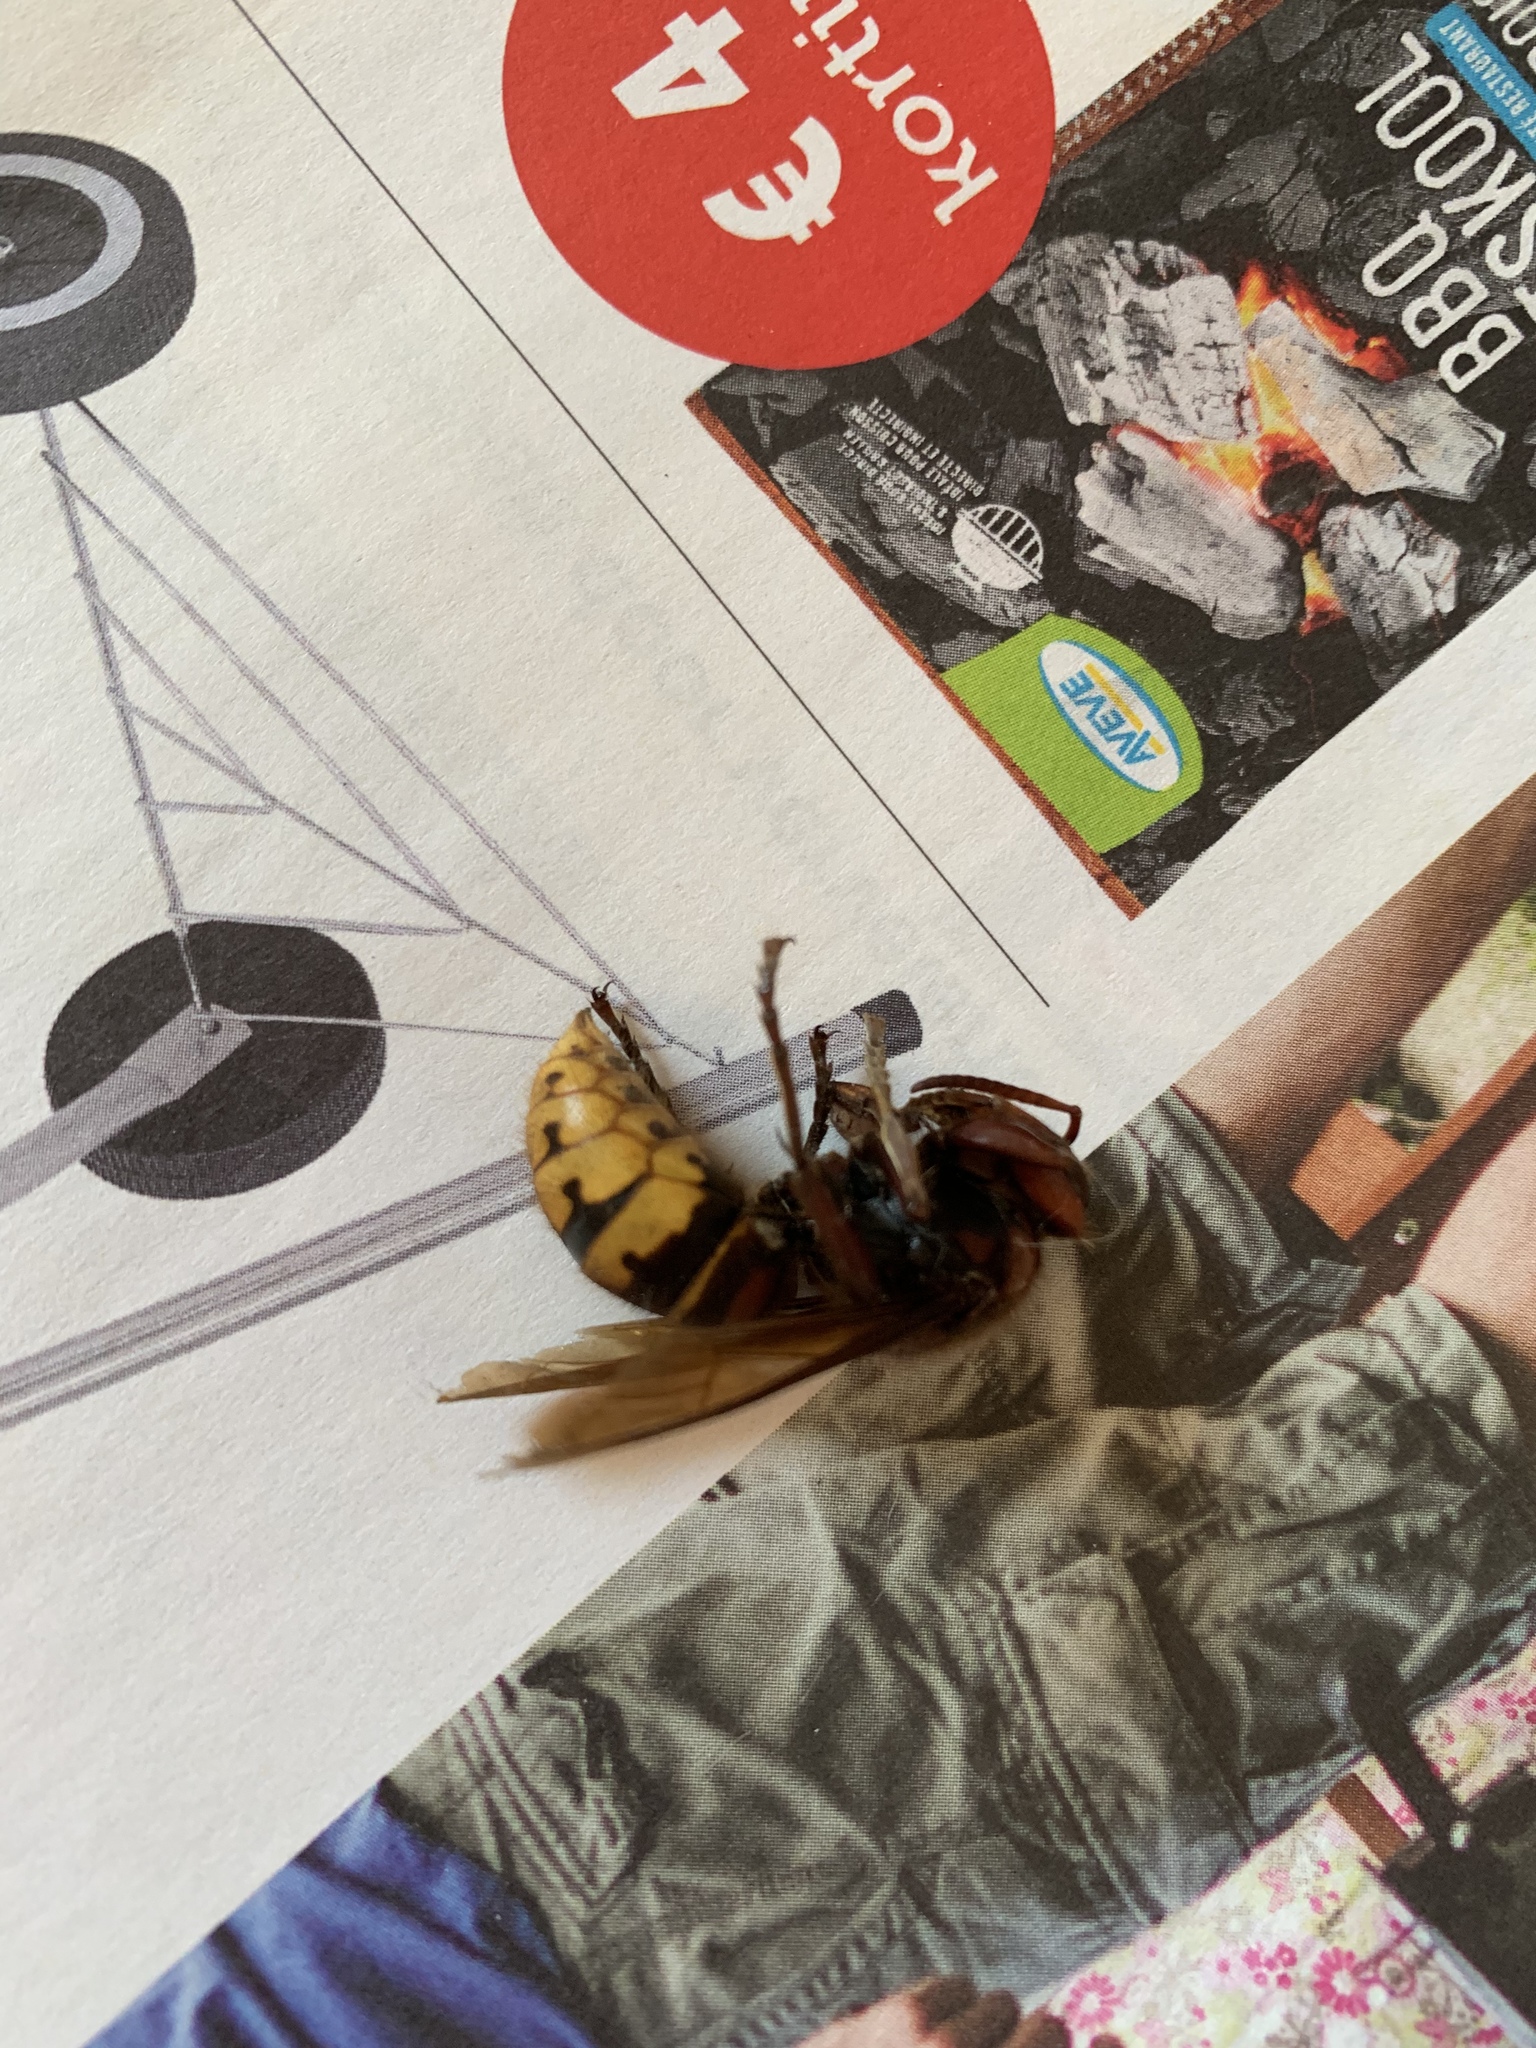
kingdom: Animalia
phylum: Arthropoda
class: Insecta
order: Hymenoptera
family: Vespidae
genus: Vespa
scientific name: Vespa crabro
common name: Hornet
